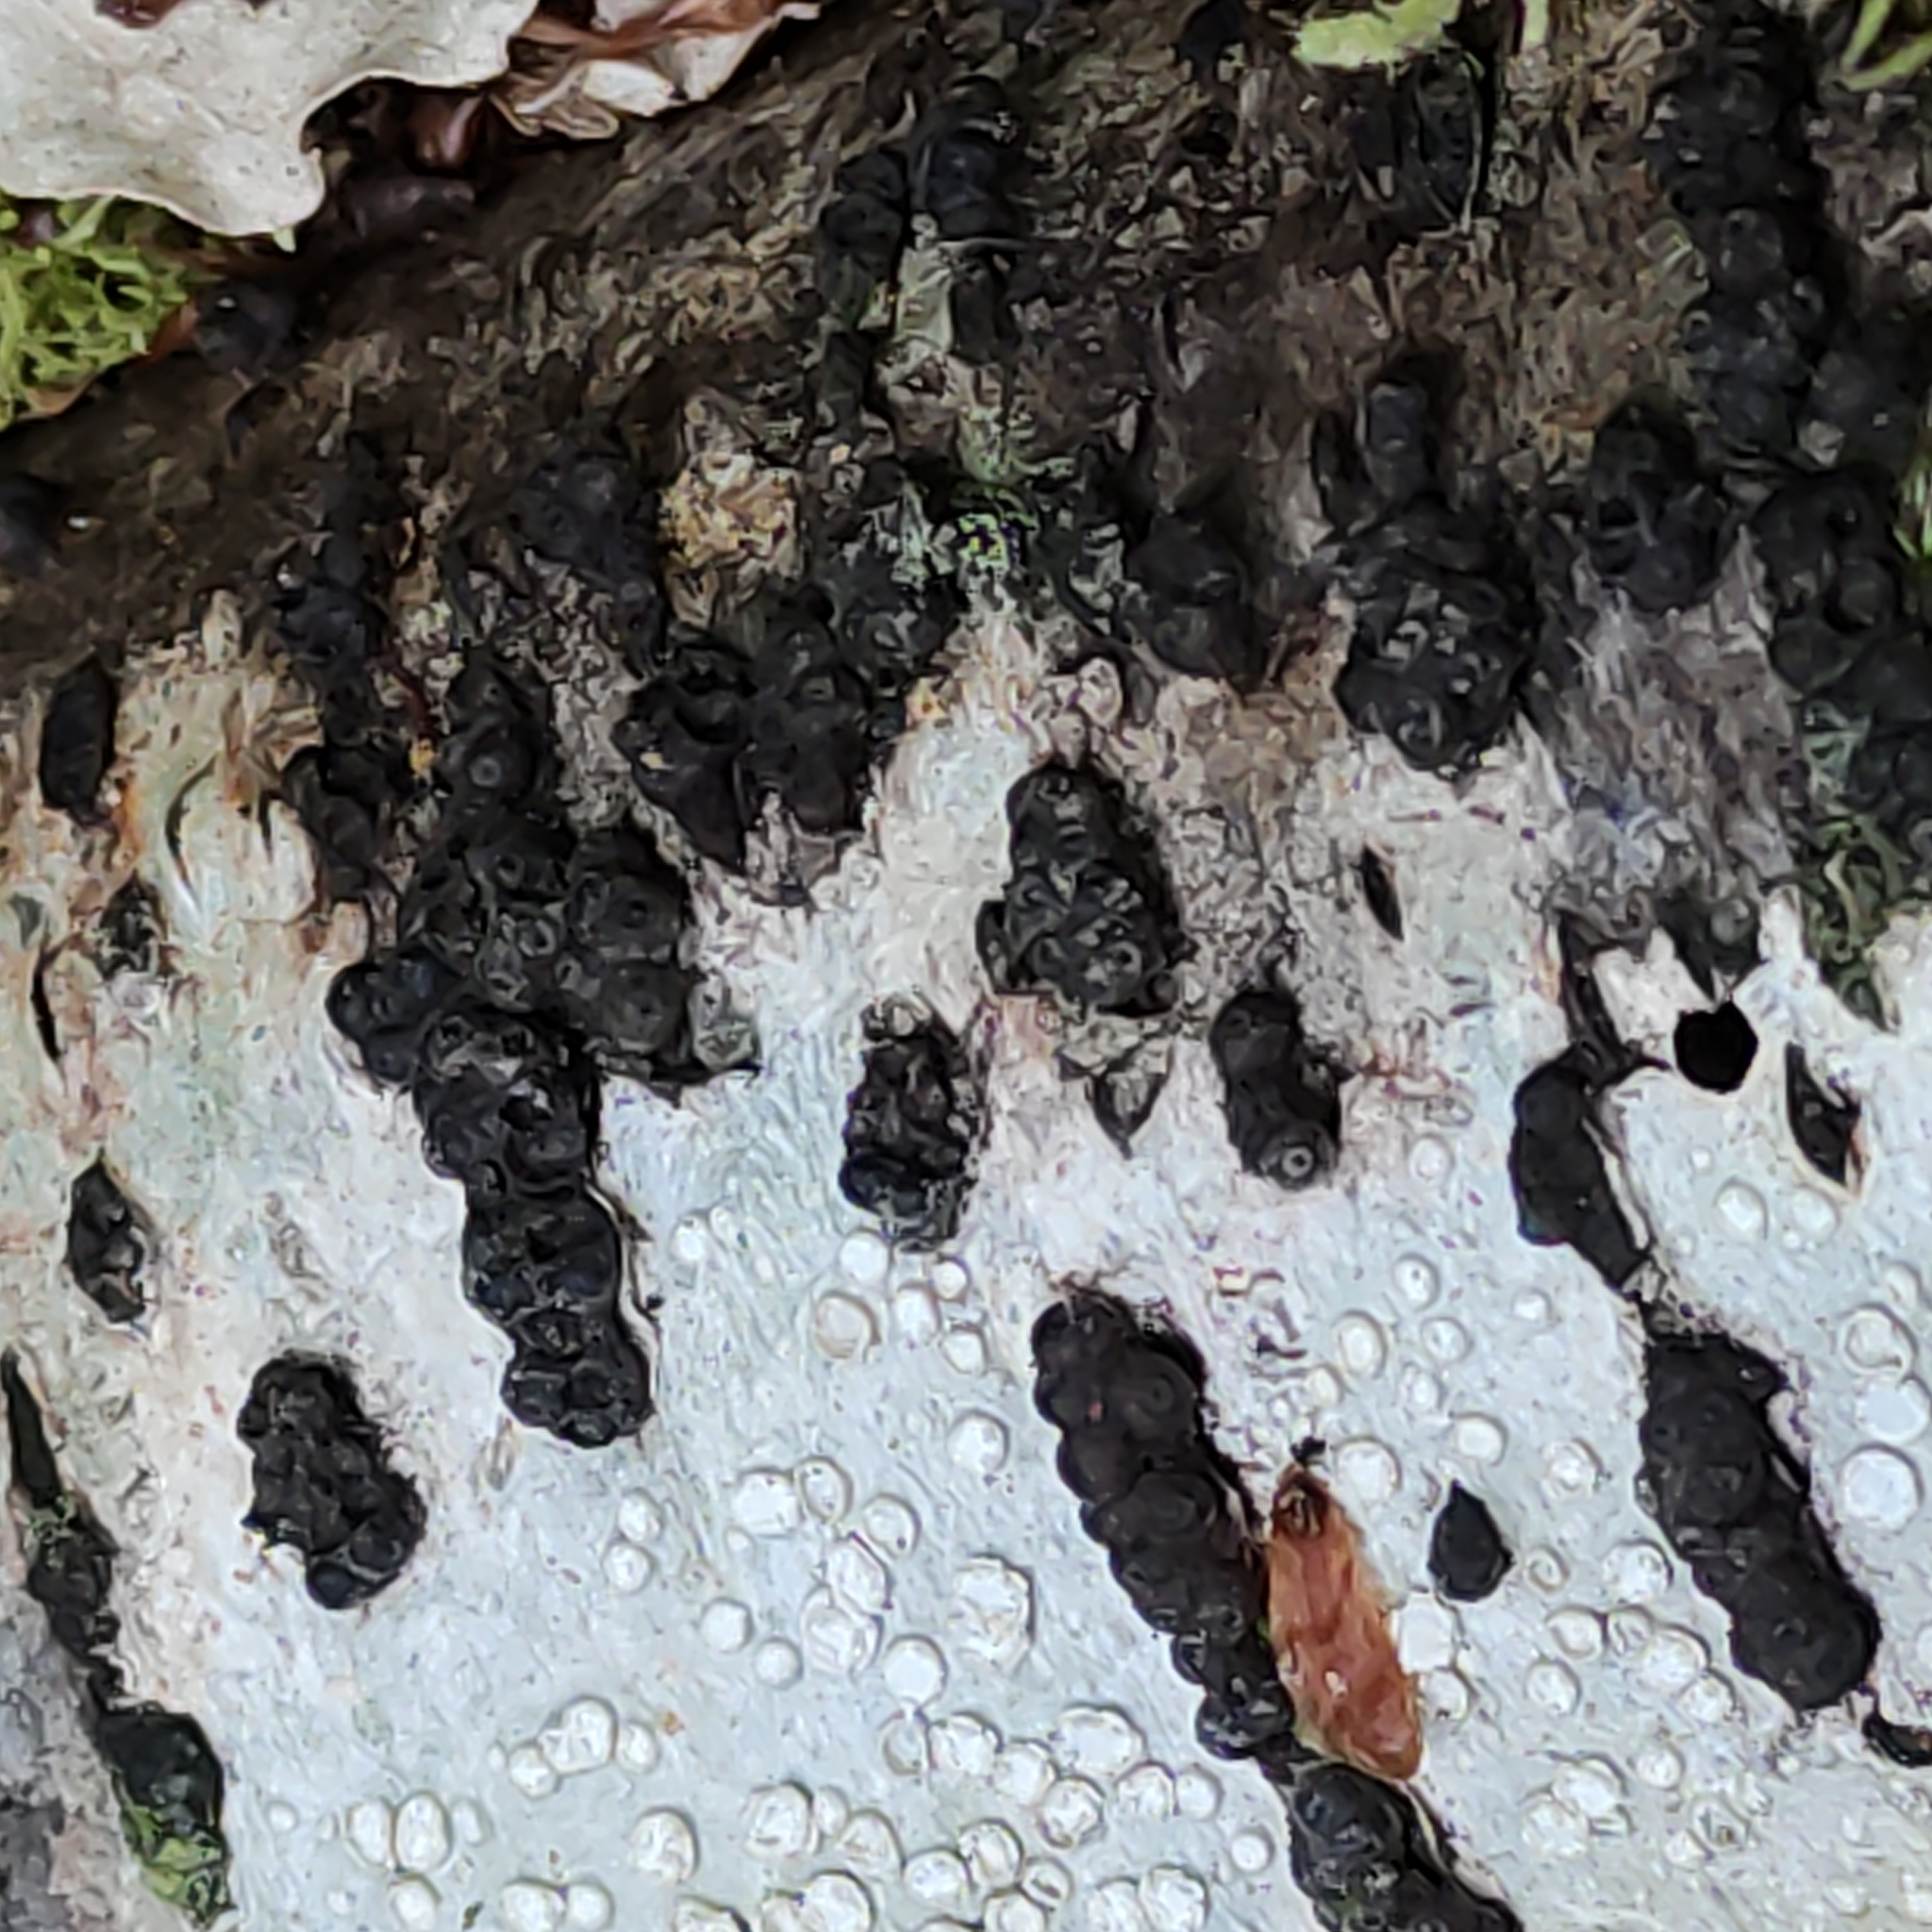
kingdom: Fungi
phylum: Ascomycota
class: Sordariomycetes
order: Xylariales
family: Hypoxylaceae
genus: Annulohypoxylon
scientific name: Annulohypoxylon bovei
